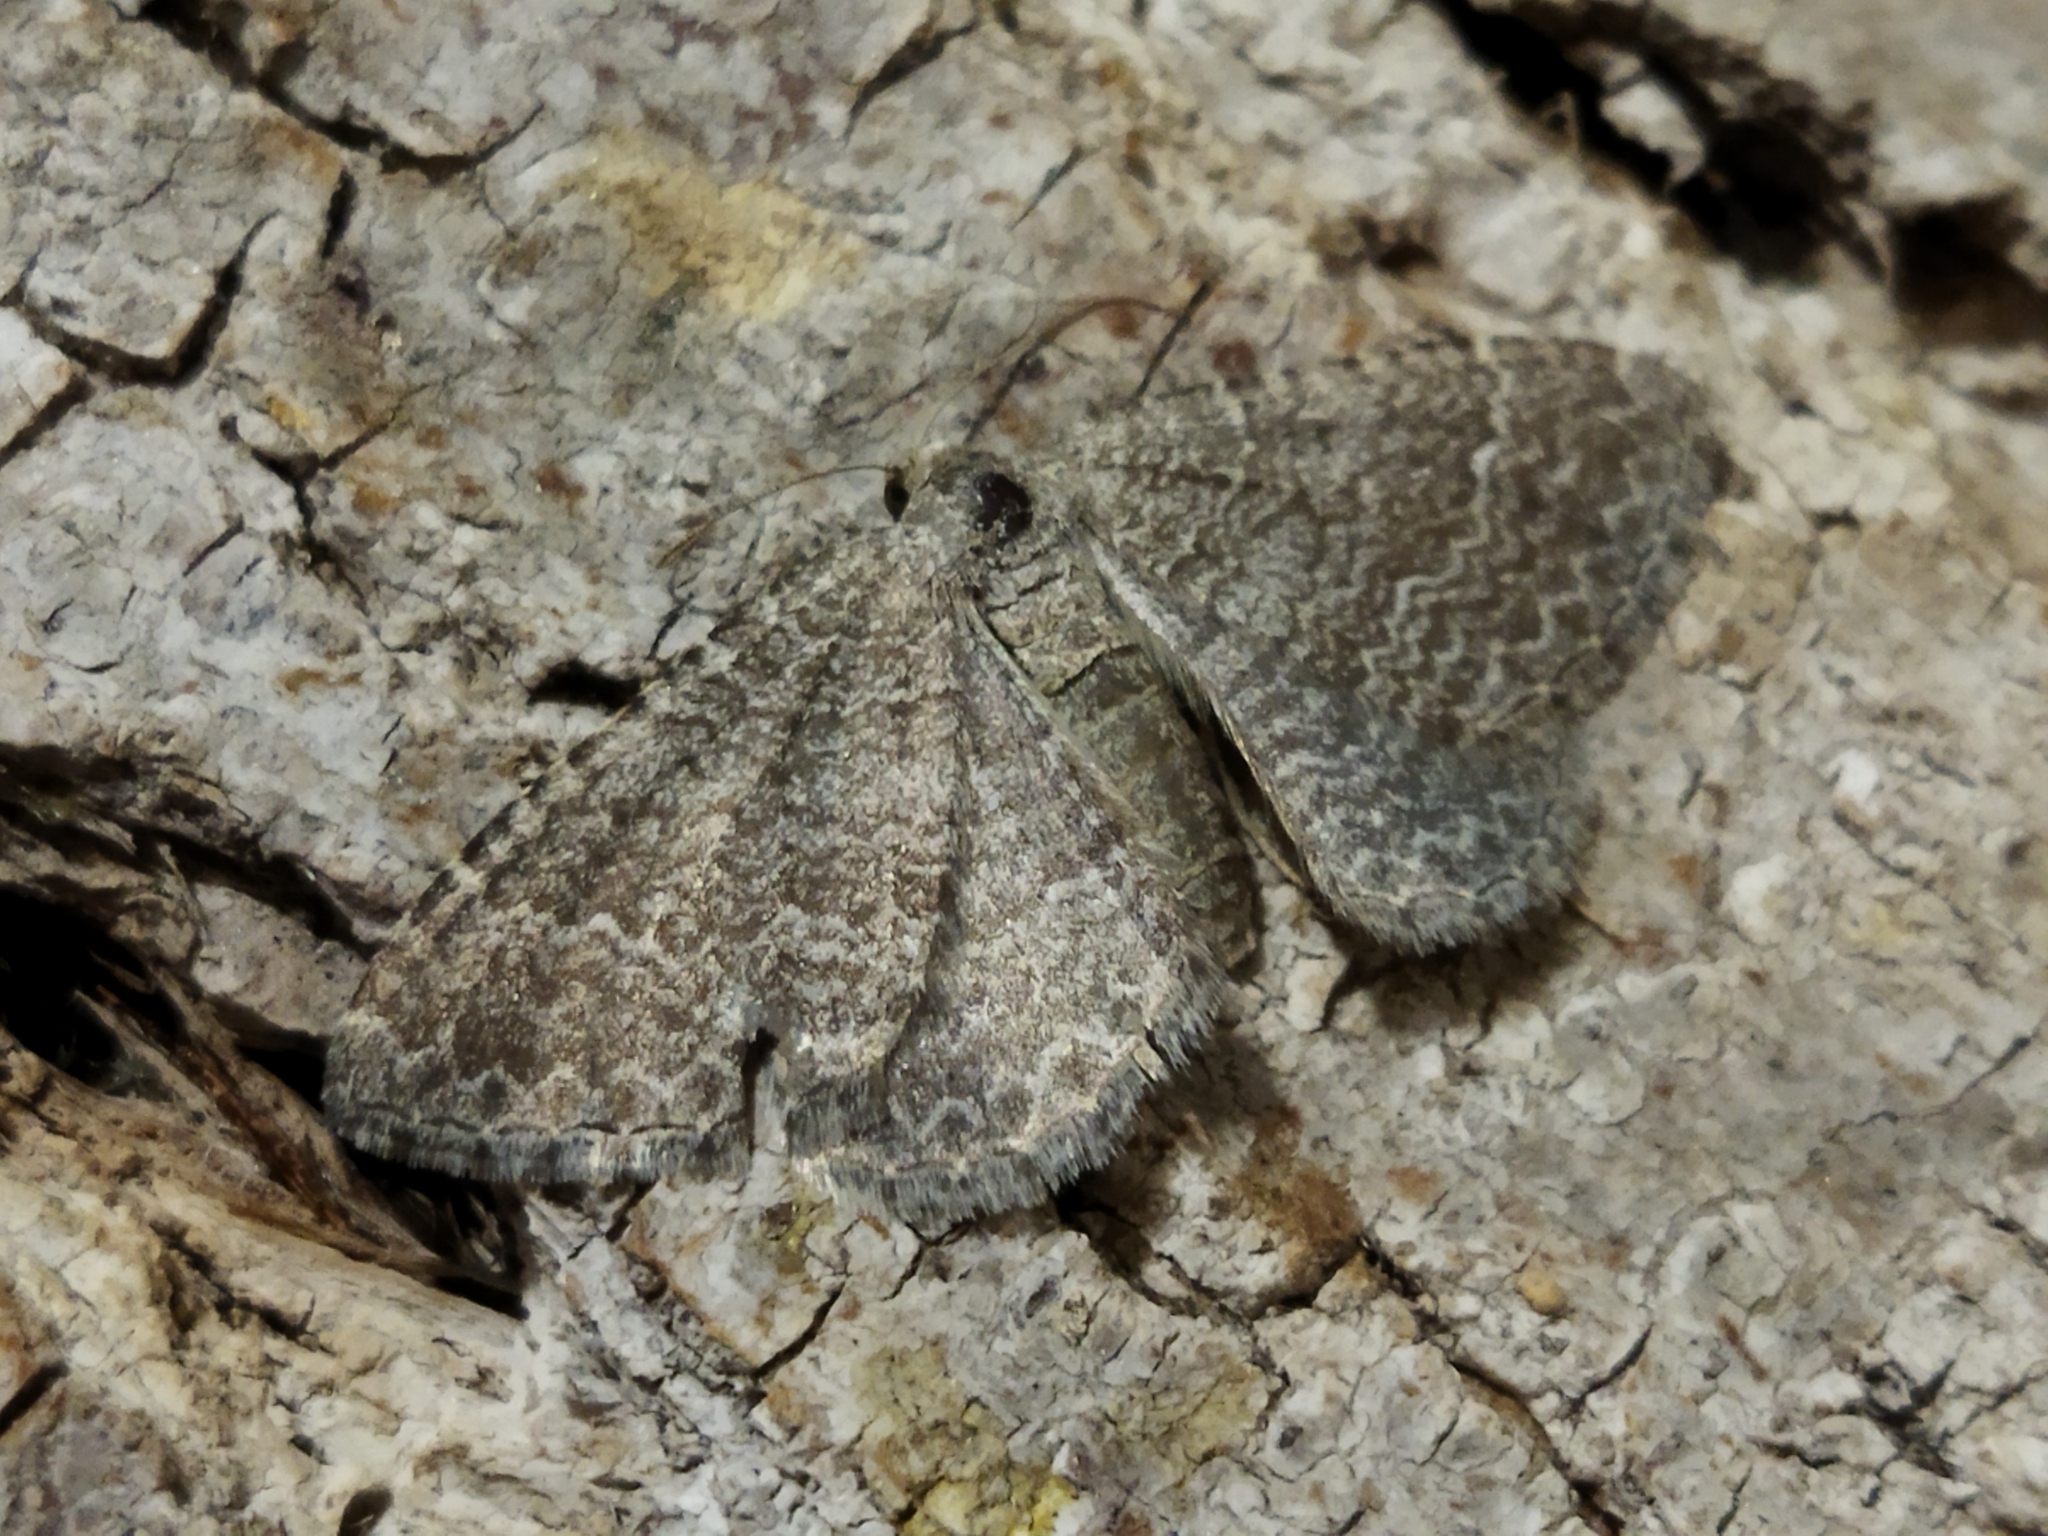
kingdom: Animalia
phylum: Arthropoda
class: Insecta
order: Lepidoptera
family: Geometridae
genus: Cataclysme
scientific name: Cataclysme riguata
